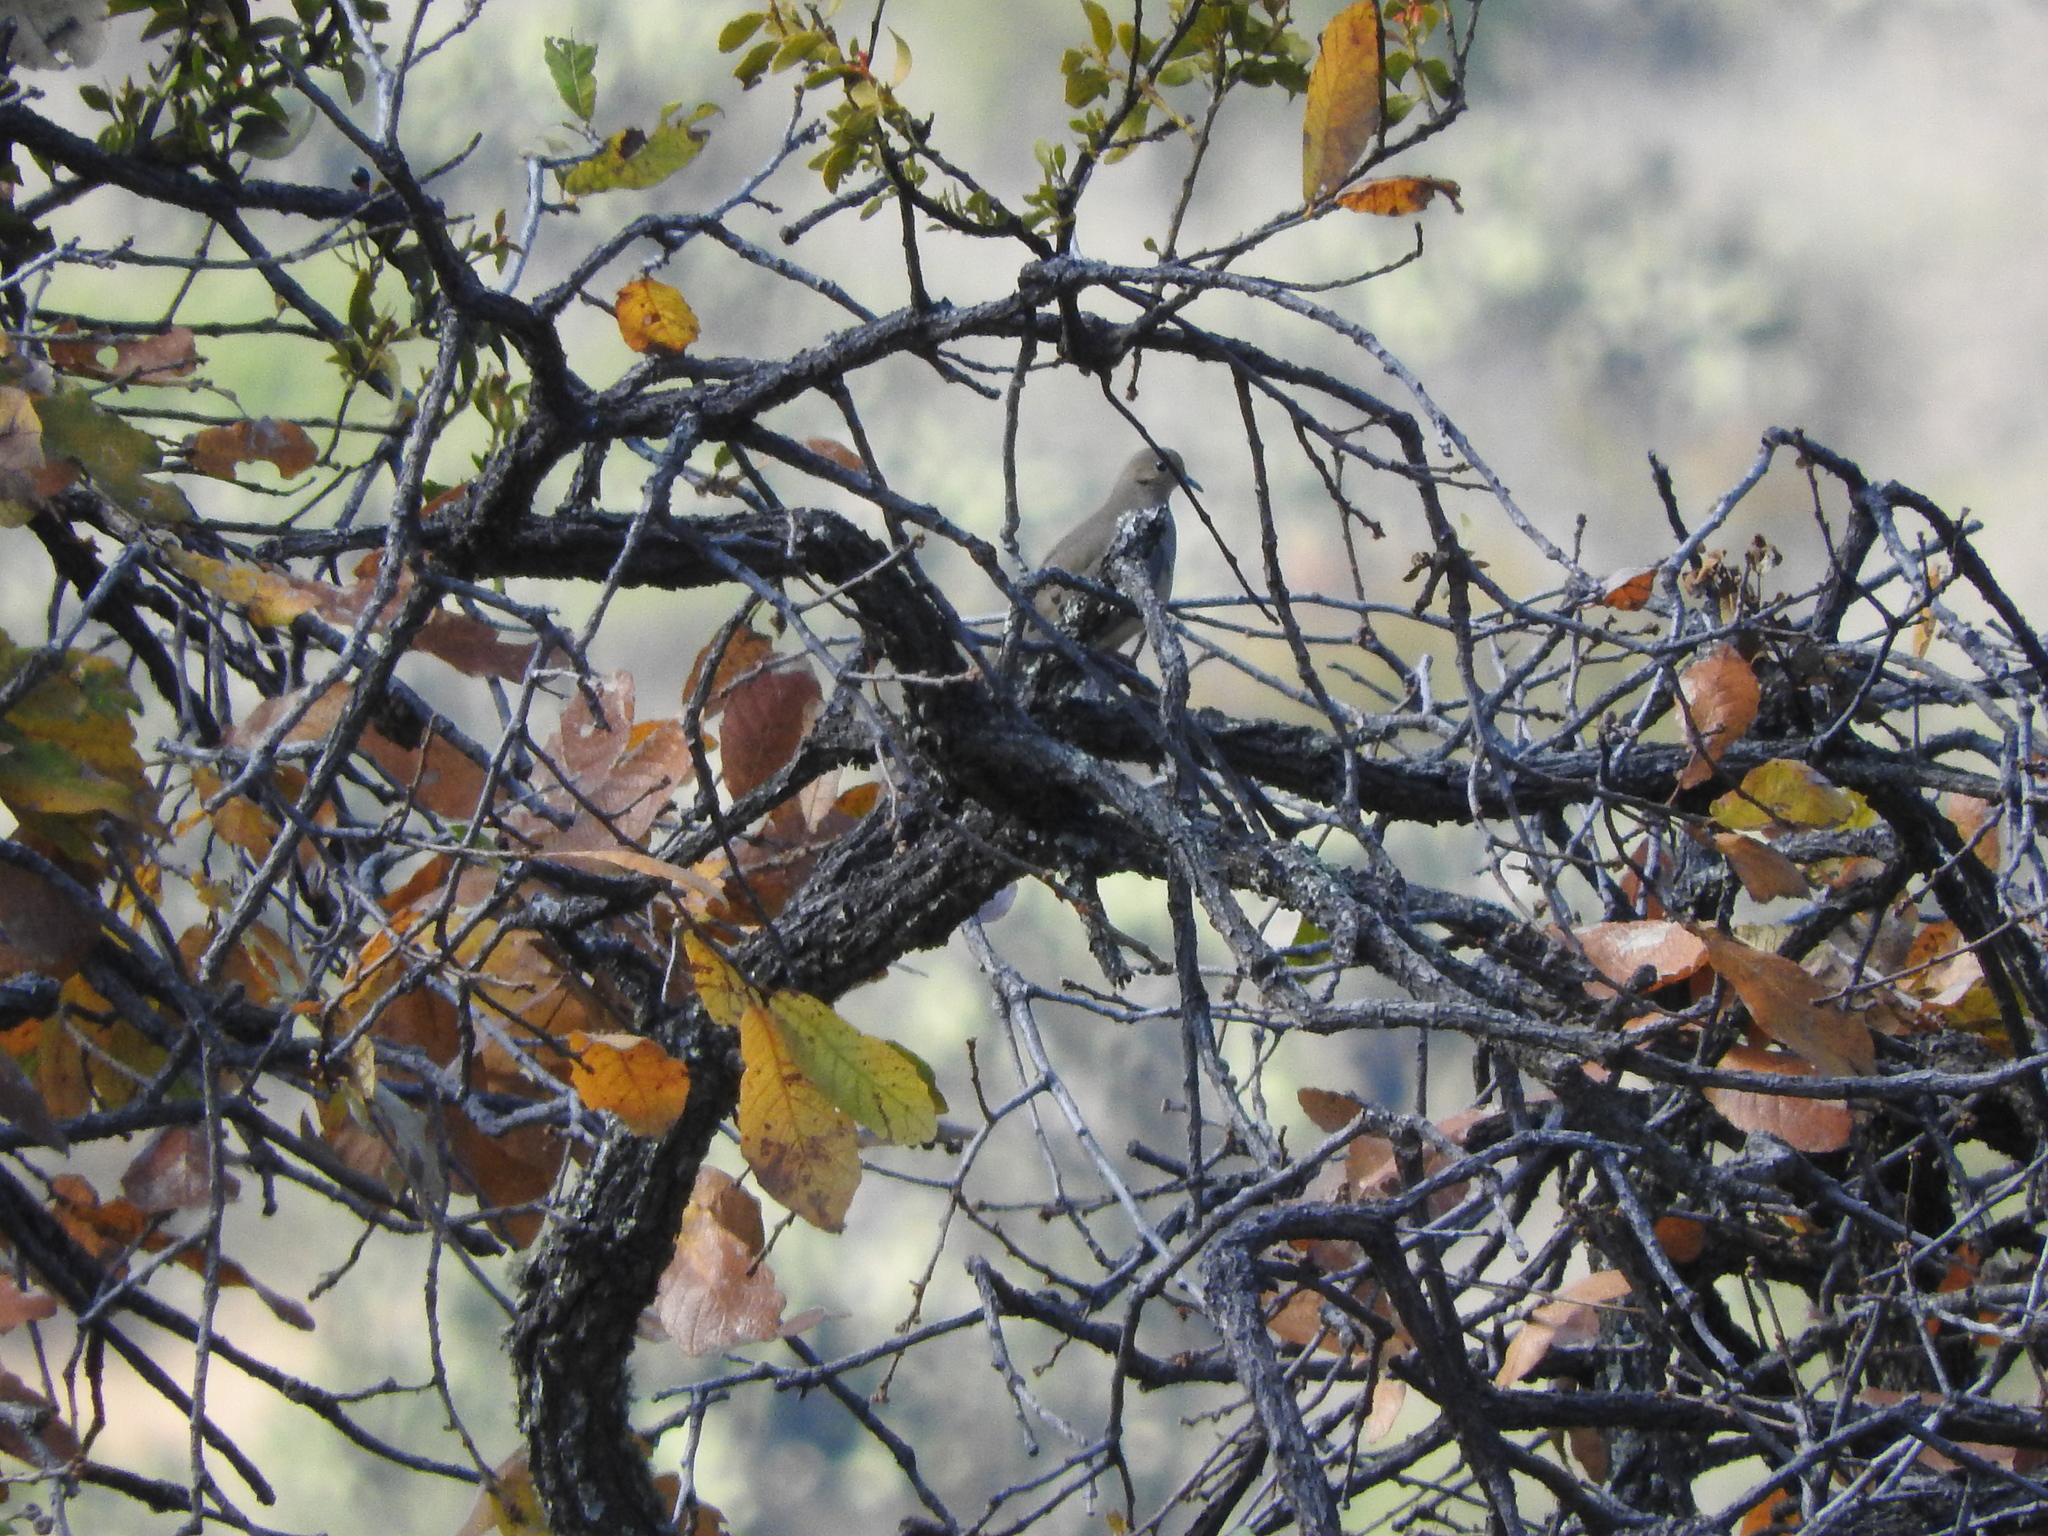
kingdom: Animalia
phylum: Chordata
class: Aves
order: Columbiformes
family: Columbidae
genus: Zenaida
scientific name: Zenaida macroura
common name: Mourning dove
